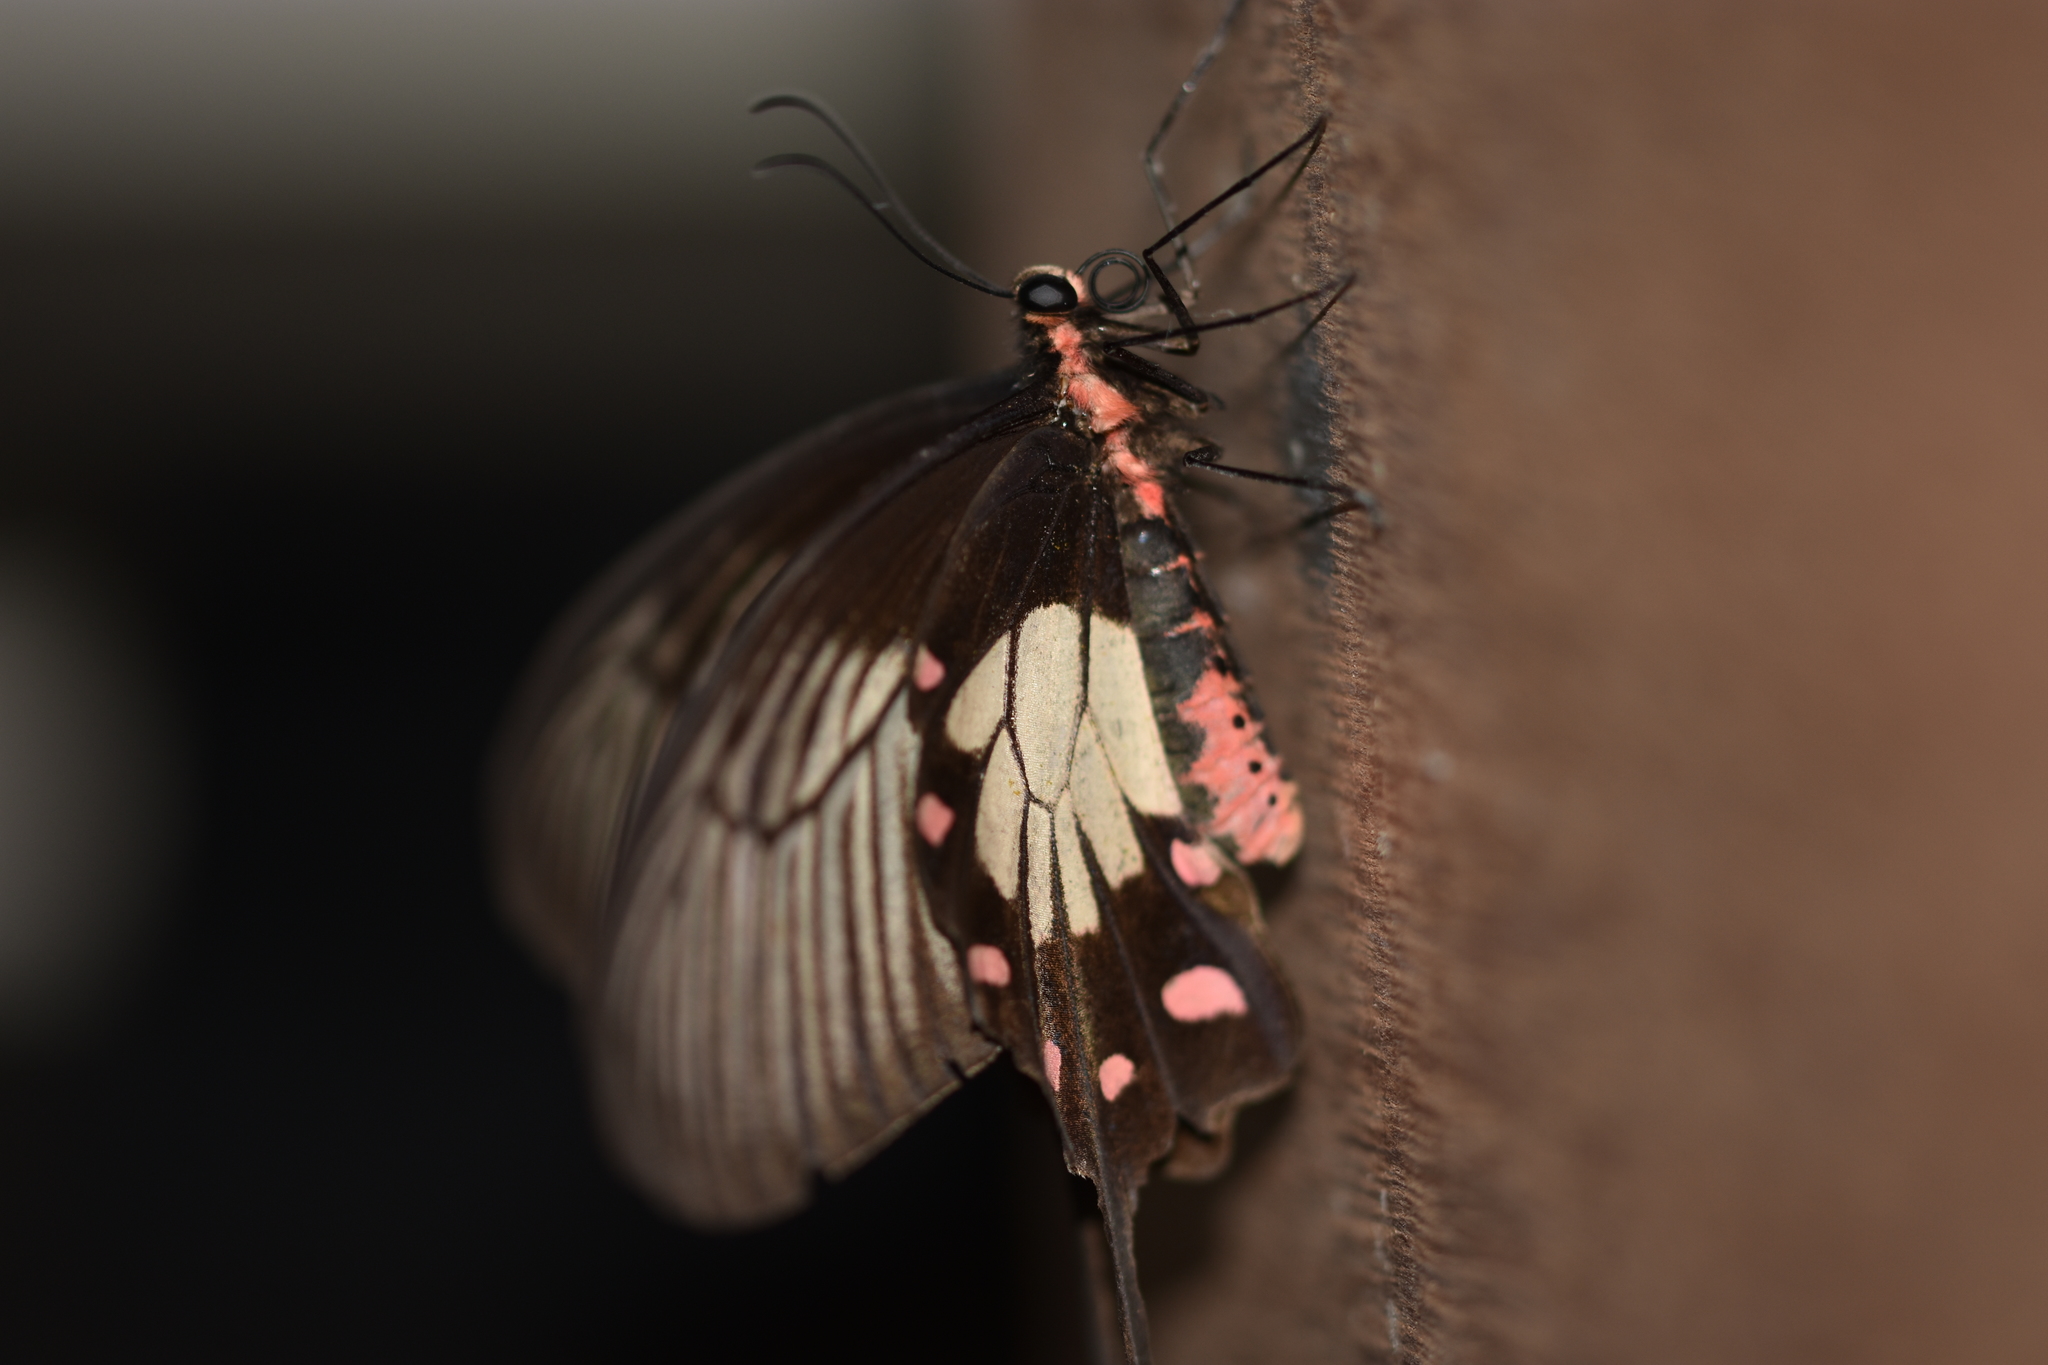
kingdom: Animalia
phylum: Arthropoda
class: Insecta
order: Lepidoptera
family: Papilionidae
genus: Pachliopta
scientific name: Pachliopta pandiyana
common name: Malabar rose
